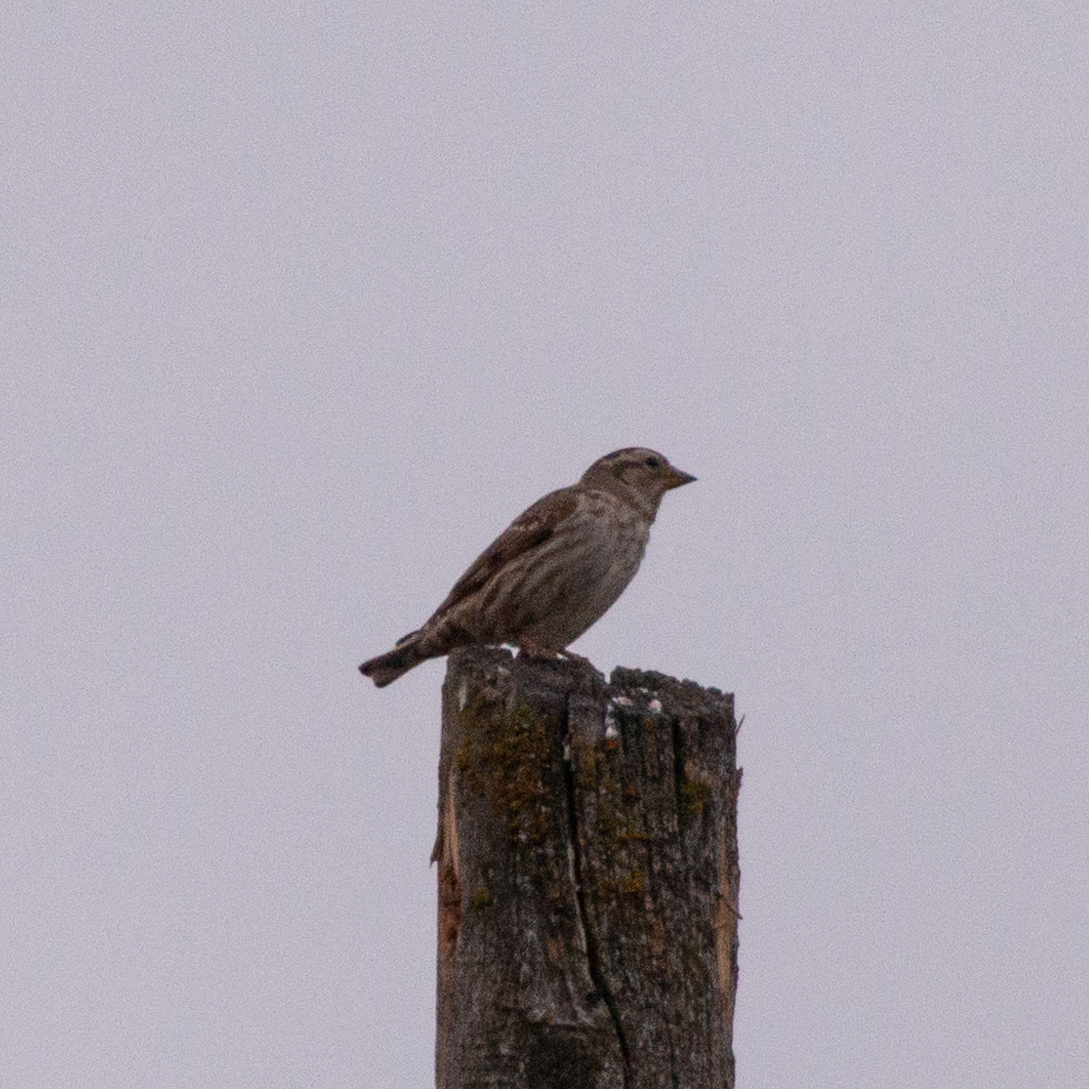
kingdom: Animalia
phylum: Chordata
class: Aves
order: Passeriformes
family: Passeridae
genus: Petronia
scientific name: Petronia petronia
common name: Rock sparrow
